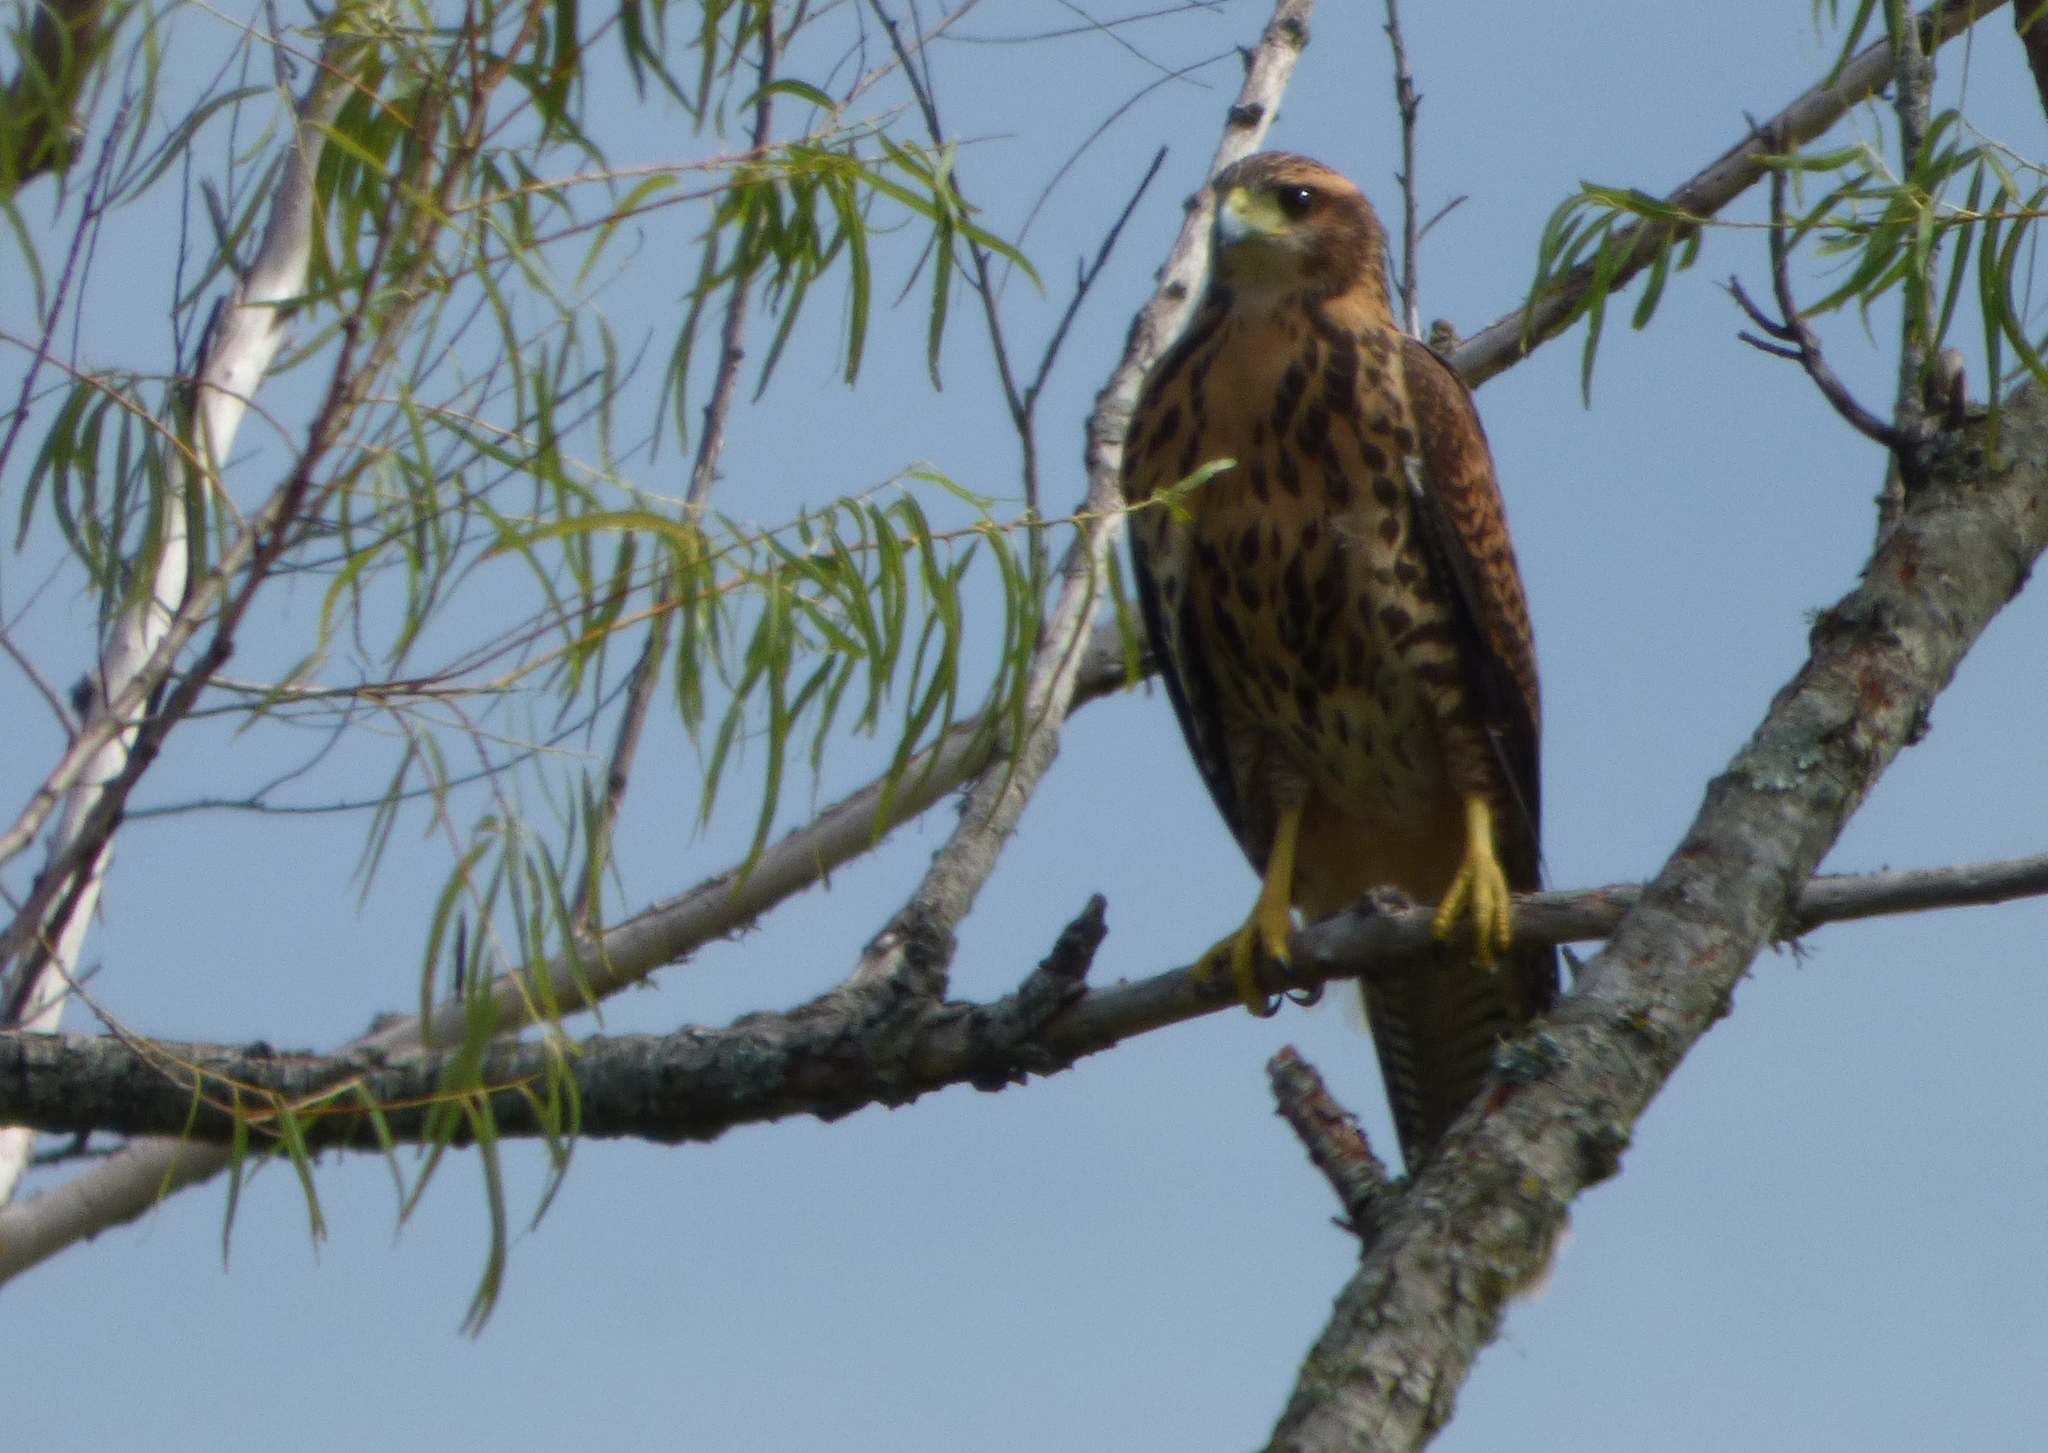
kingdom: Animalia
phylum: Chordata
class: Aves
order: Accipitriformes
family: Accipitridae
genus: Parabuteo
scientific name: Parabuteo unicinctus
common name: Harris's hawk
